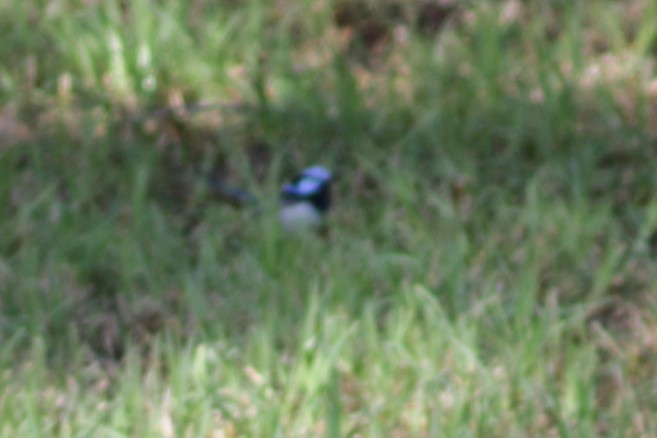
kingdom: Animalia
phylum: Chordata
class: Aves
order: Passeriformes
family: Maluridae
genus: Malurus
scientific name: Malurus cyaneus
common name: Superb fairywren
